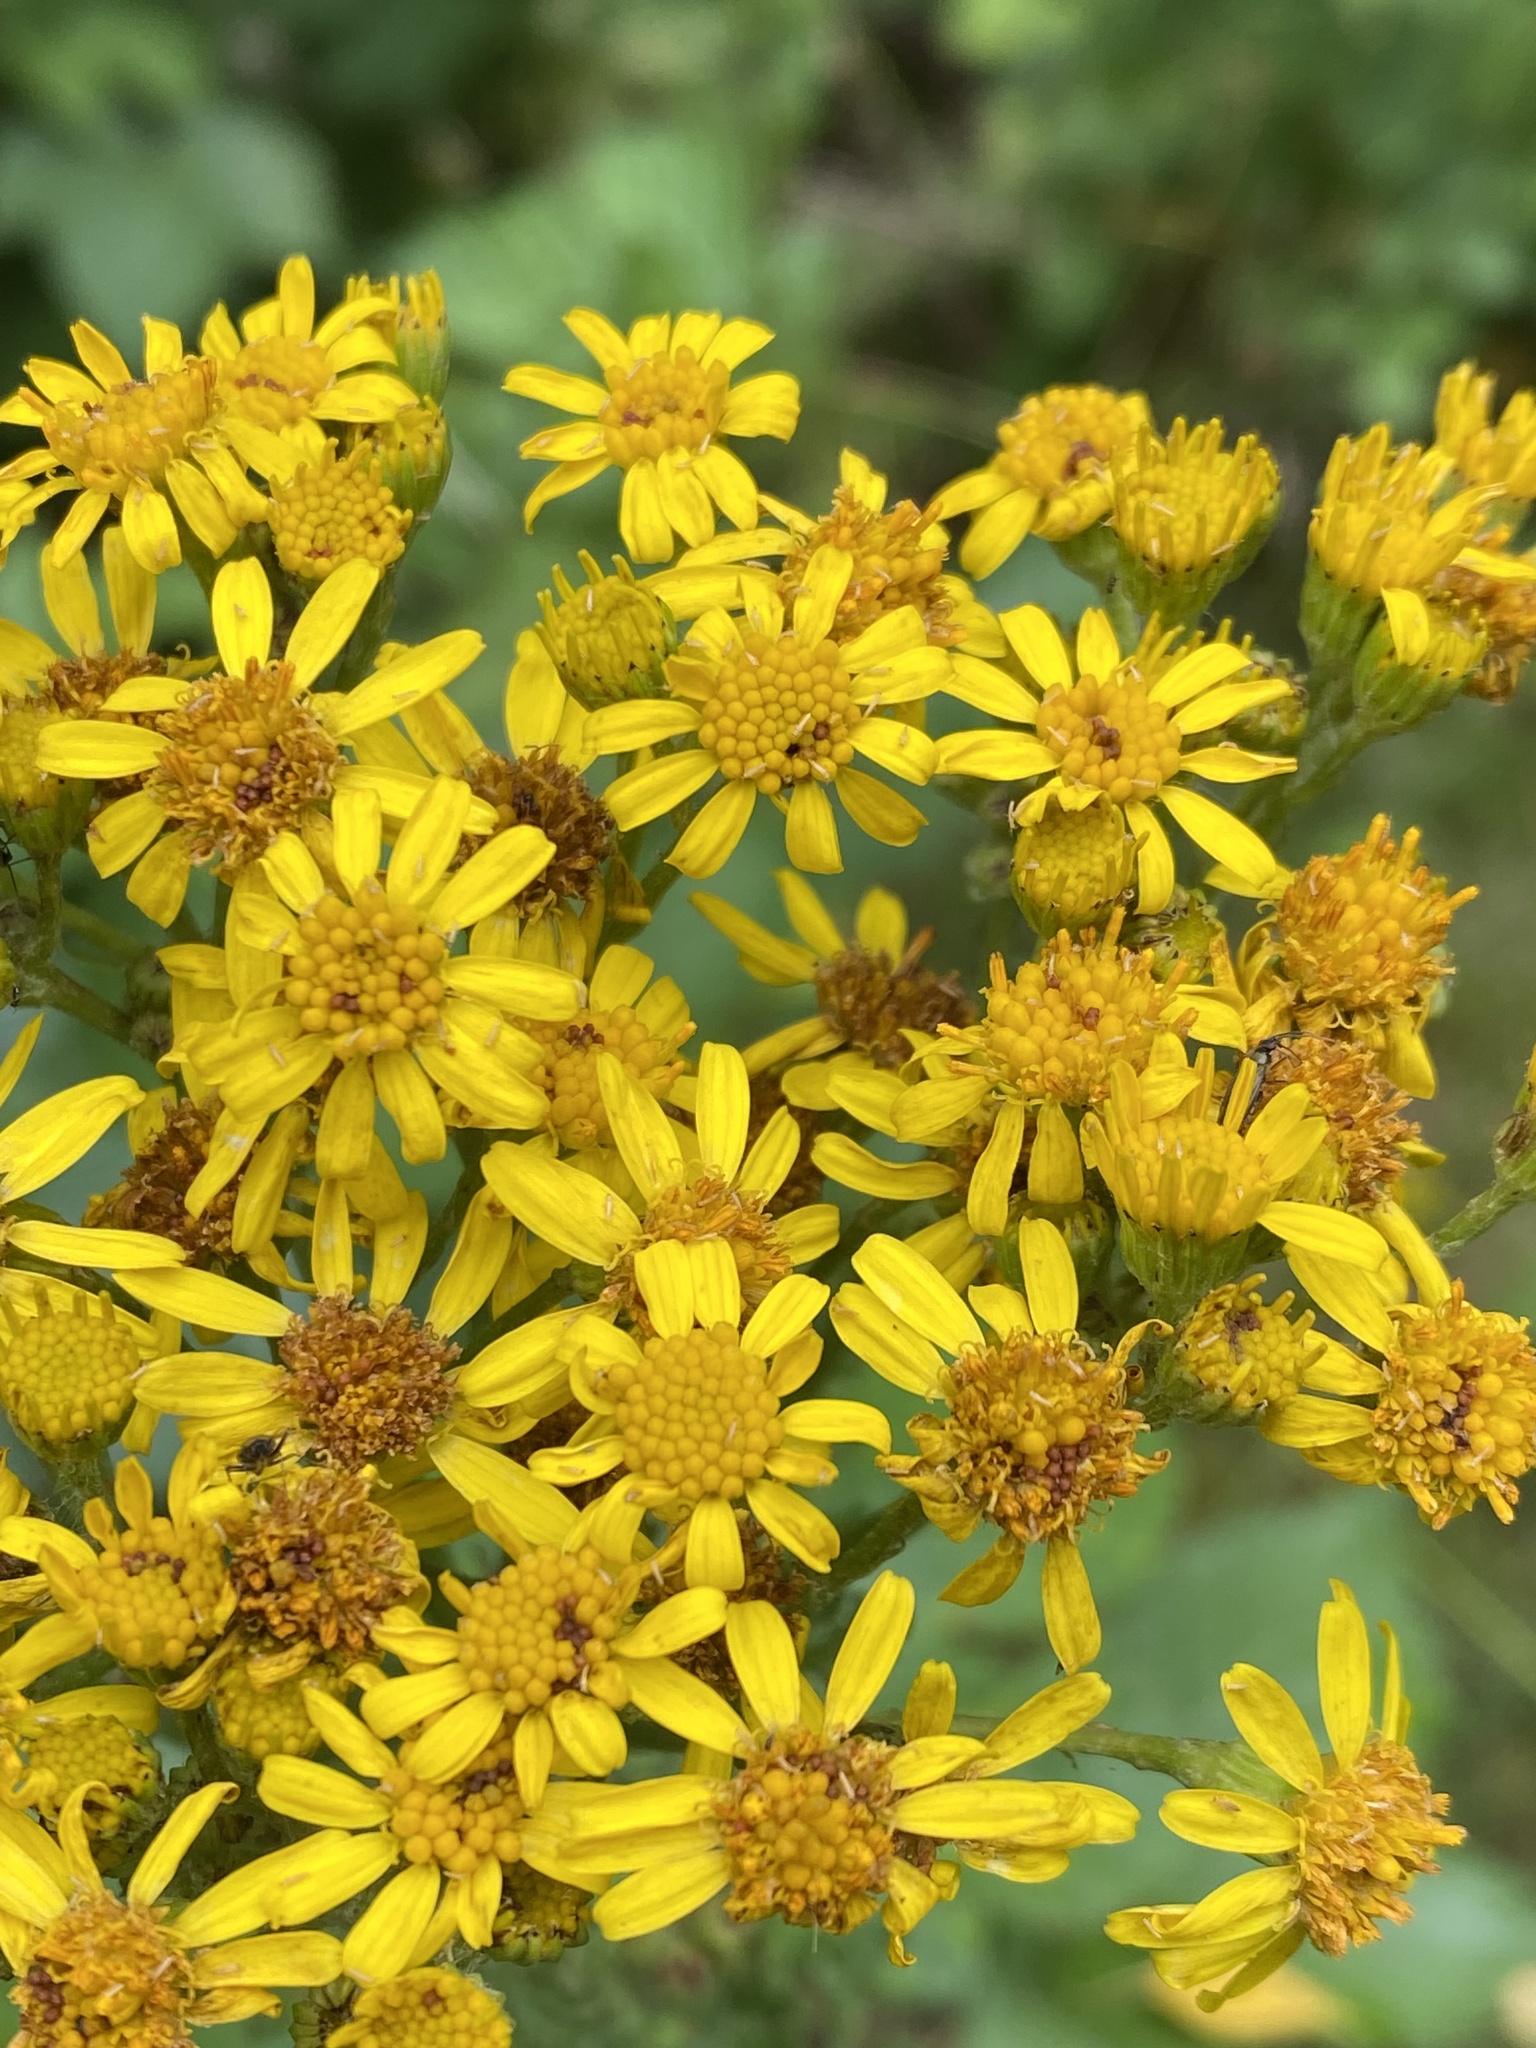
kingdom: Plantae
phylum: Tracheophyta
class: Magnoliopsida
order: Asterales
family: Asteraceae
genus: Jacobaea
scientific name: Jacobaea vulgaris
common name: Stinking willie
